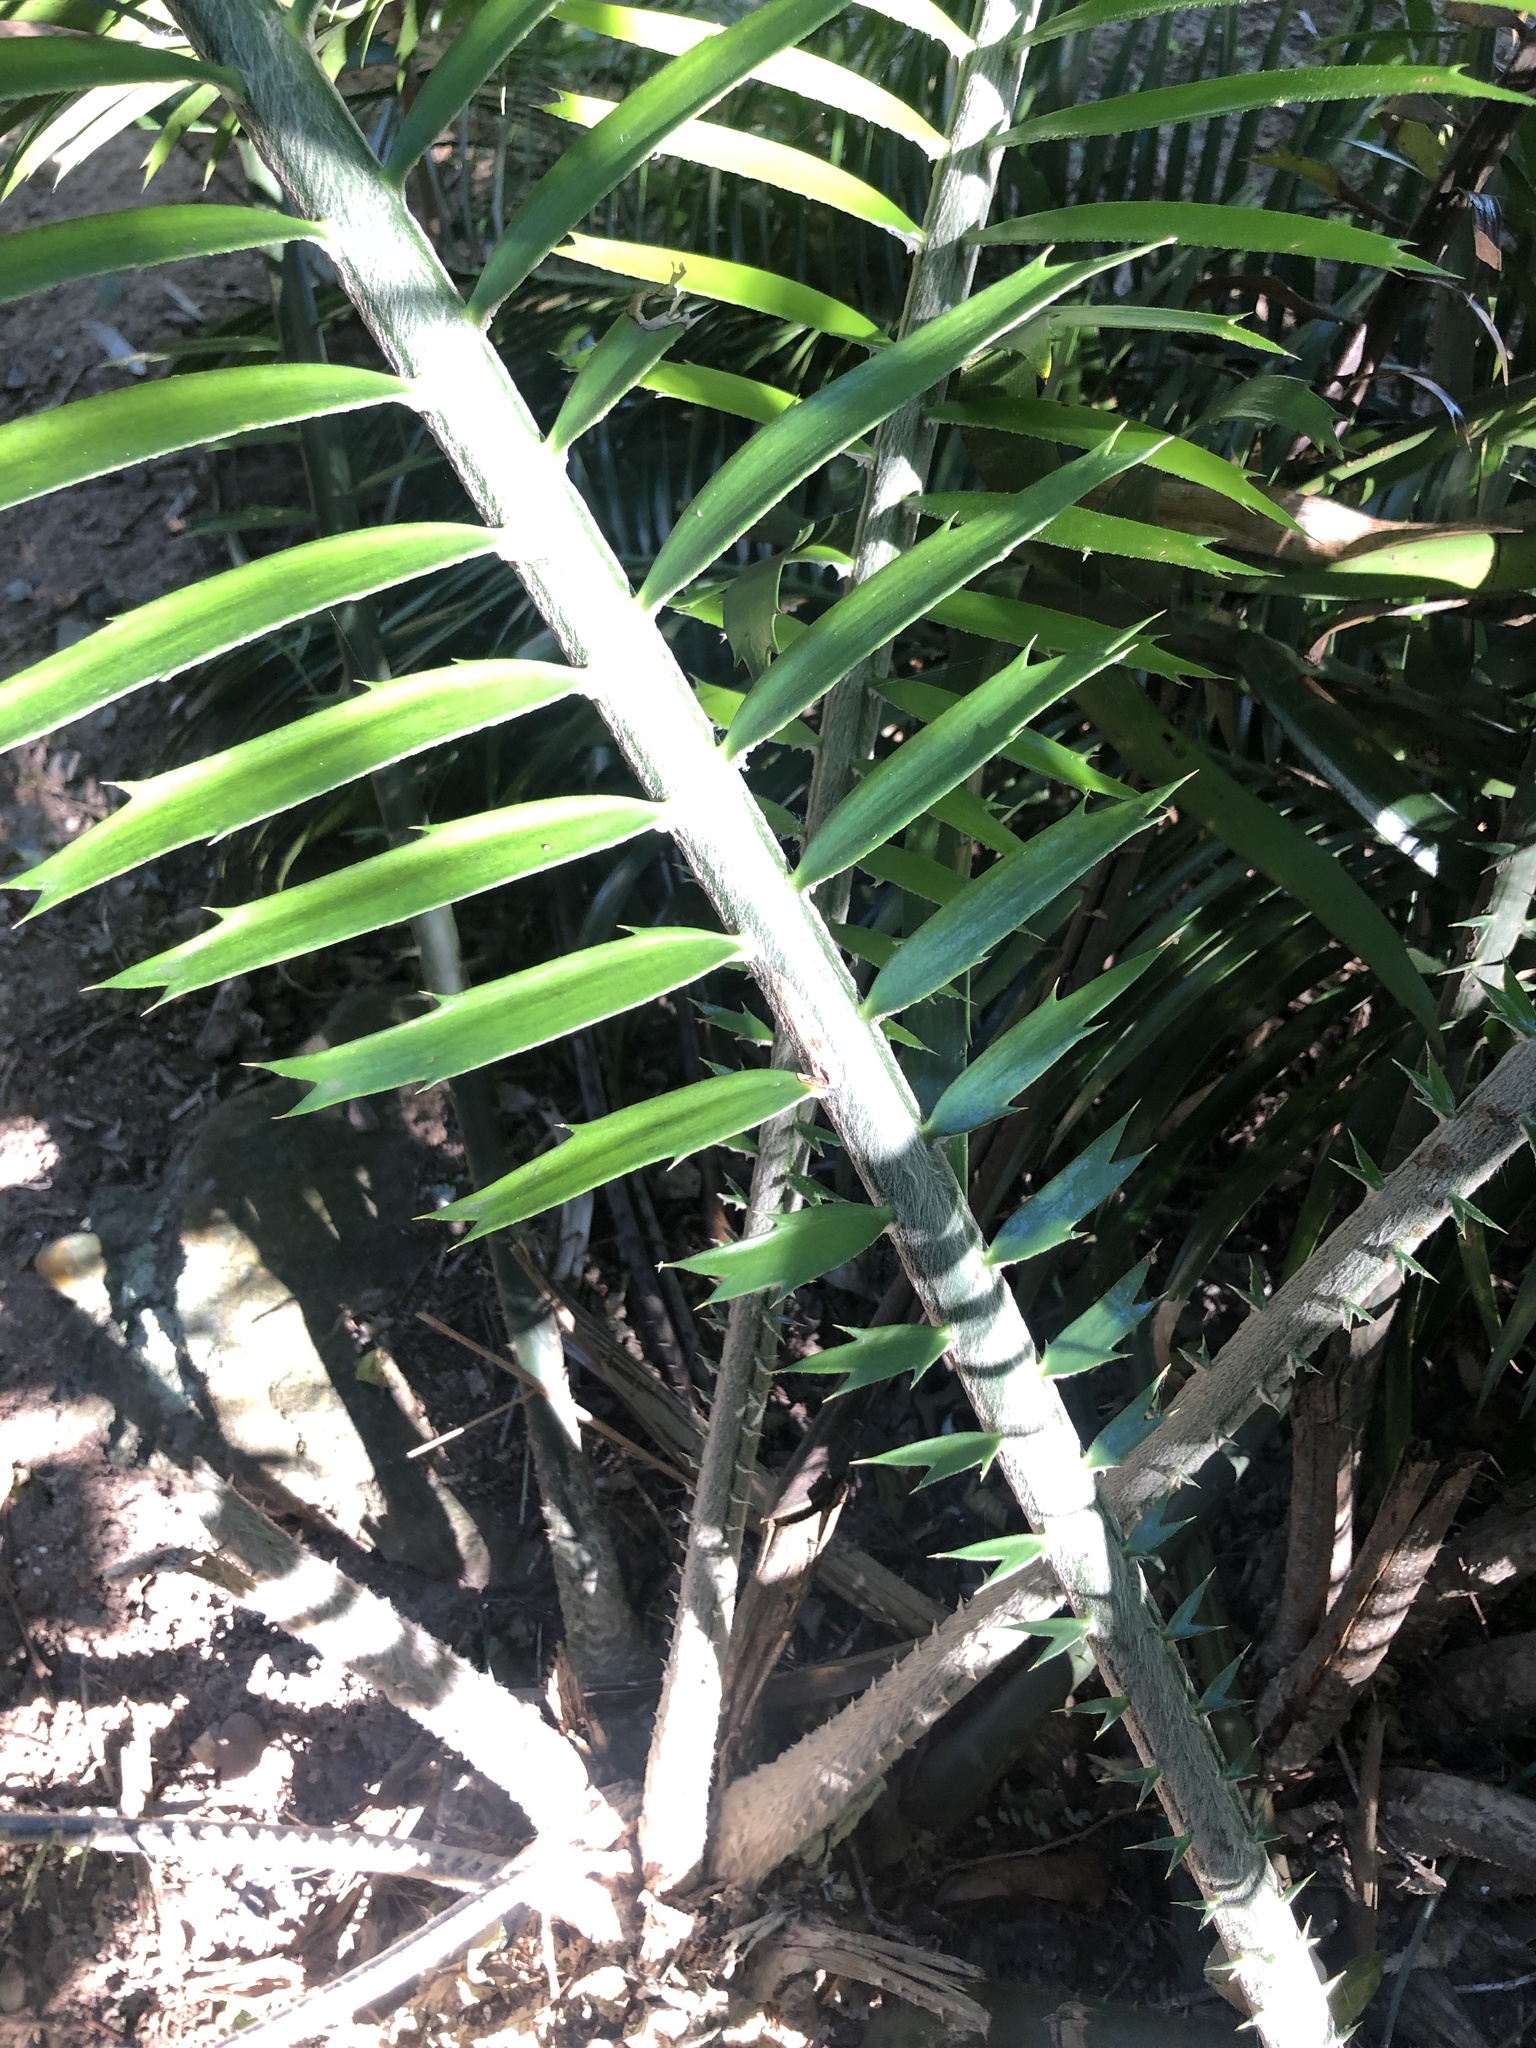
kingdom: Plantae
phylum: Tracheophyta
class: Cycadopsida
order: Cycadales
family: Zamiaceae
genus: Encephalartos
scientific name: Encephalartos villosus
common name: Poor man's cycad
